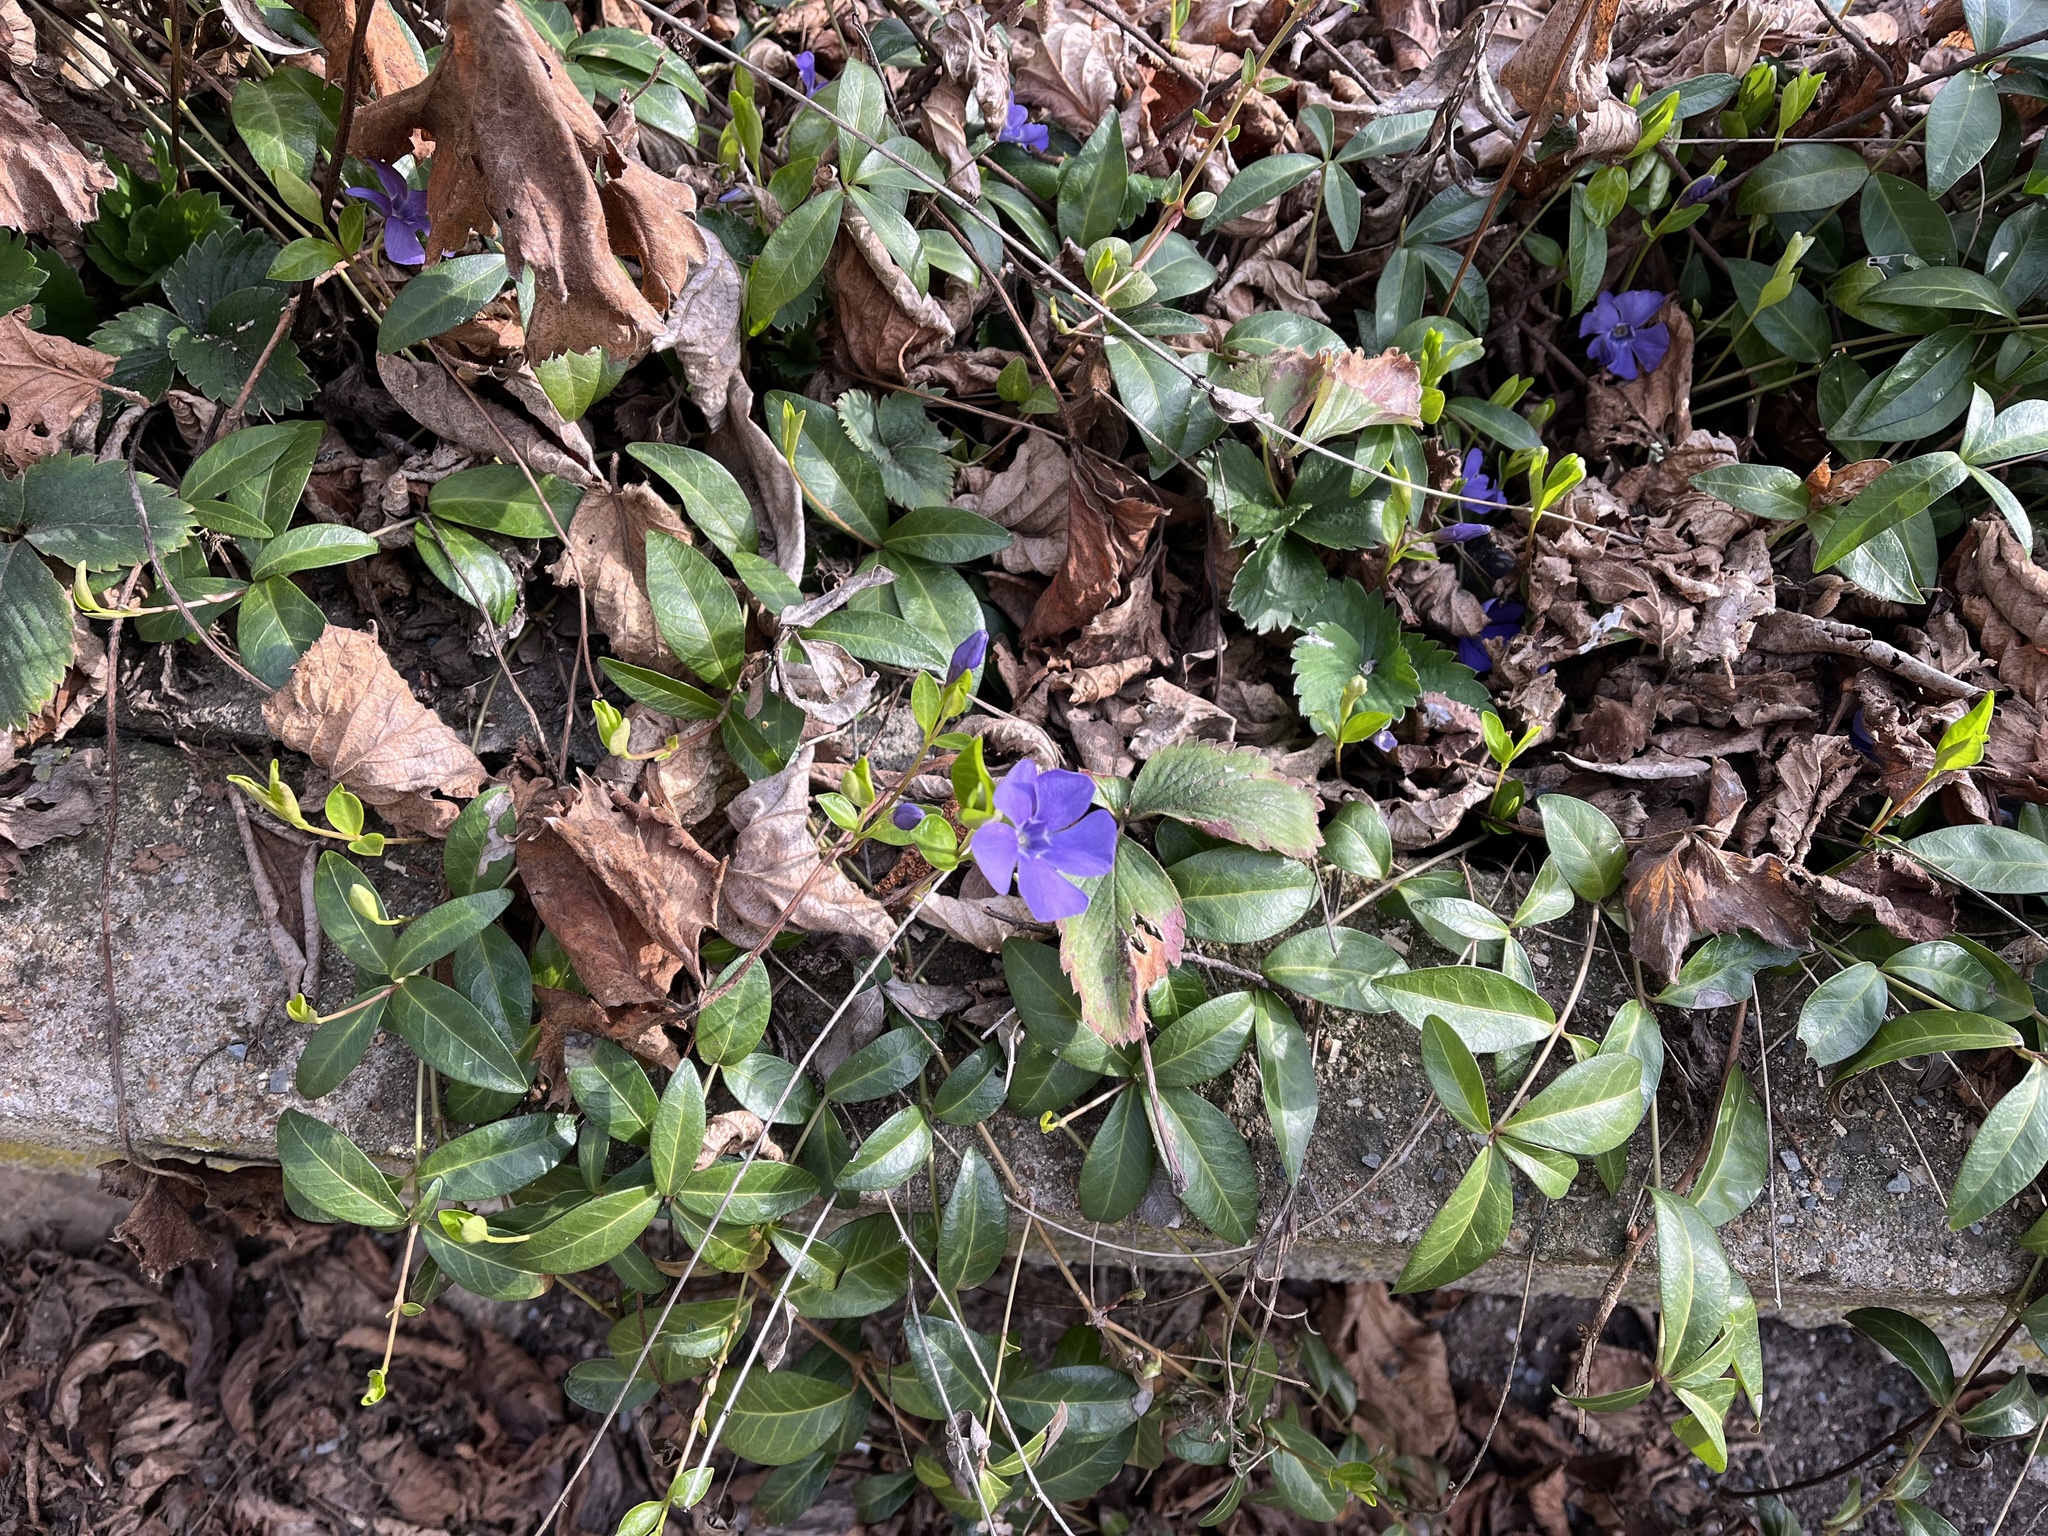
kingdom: Plantae
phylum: Tracheophyta
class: Magnoliopsida
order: Gentianales
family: Apocynaceae
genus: Vinca
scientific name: Vinca minor
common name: Lesser periwinkle
